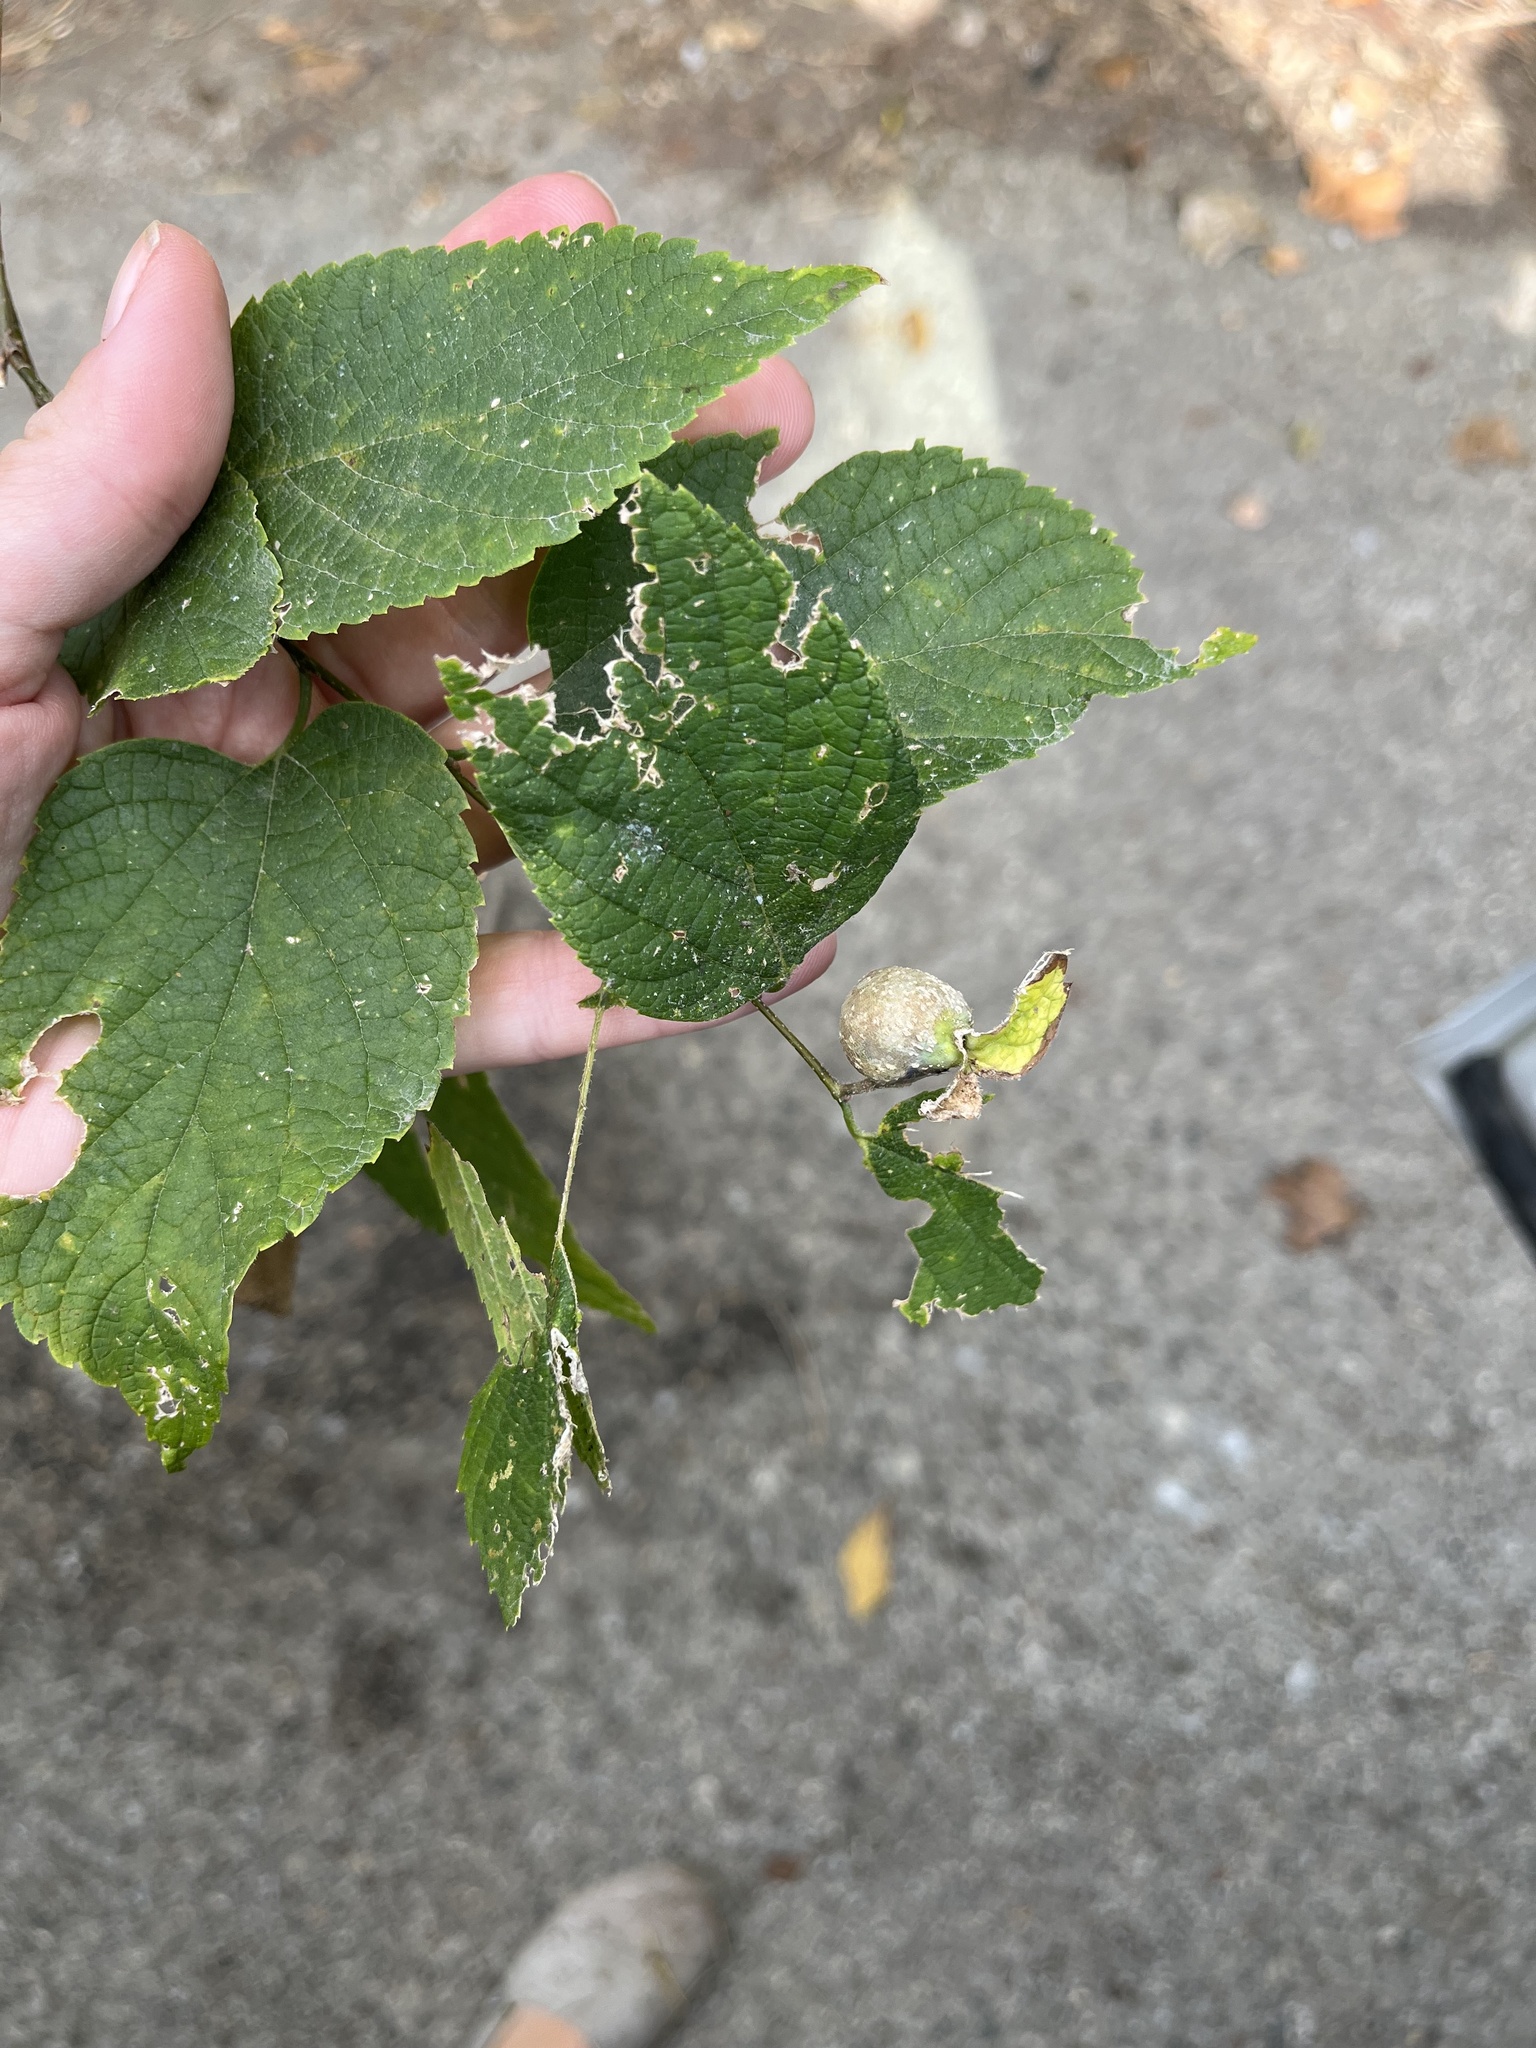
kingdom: Animalia
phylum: Arthropoda
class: Insecta
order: Hemiptera
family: Aphalaridae
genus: Pachypsylla
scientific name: Pachypsylla venusta
